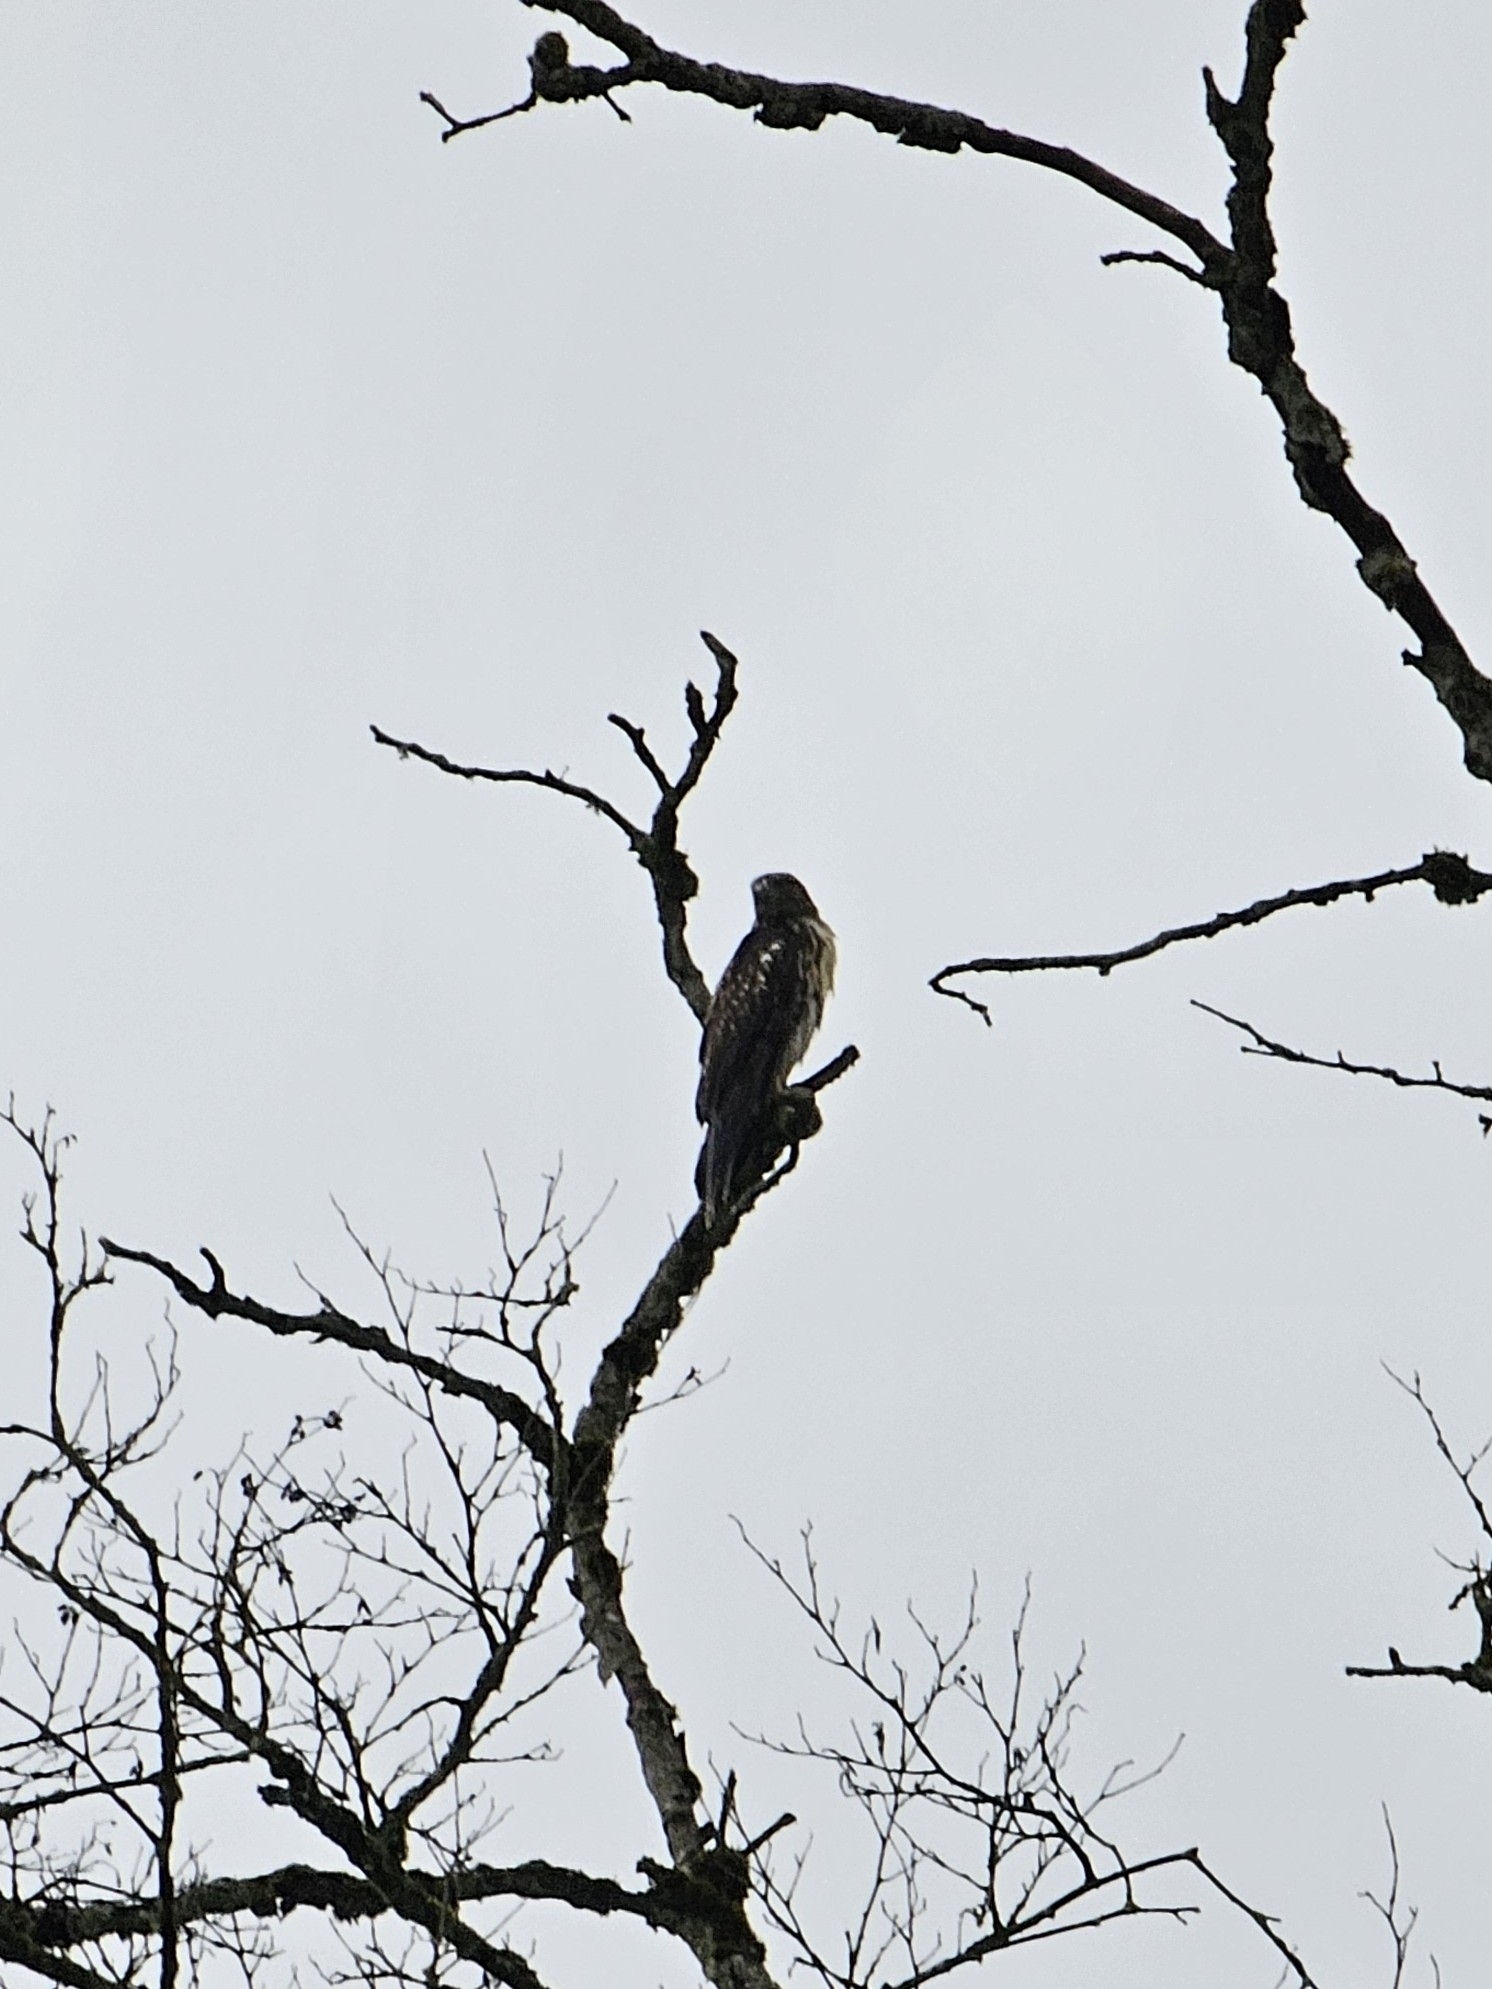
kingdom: Animalia
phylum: Chordata
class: Aves
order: Accipitriformes
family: Accipitridae
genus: Buteo
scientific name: Buteo jamaicensis
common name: Red-tailed hawk
